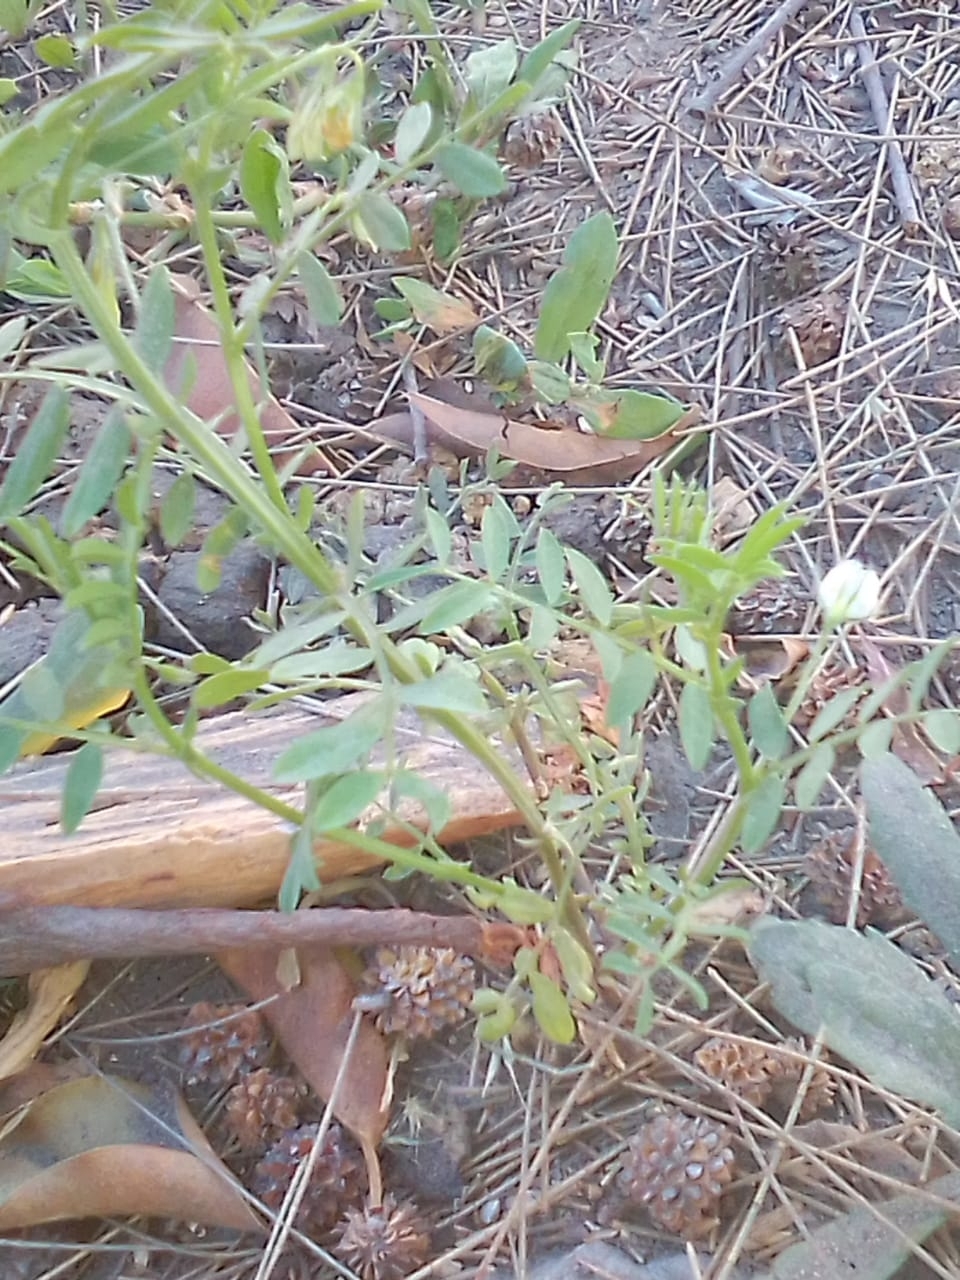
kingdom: Plantae
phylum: Tracheophyta
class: Magnoliopsida
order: Fabales
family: Fabaceae
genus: Vicia
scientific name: Vicia lens
